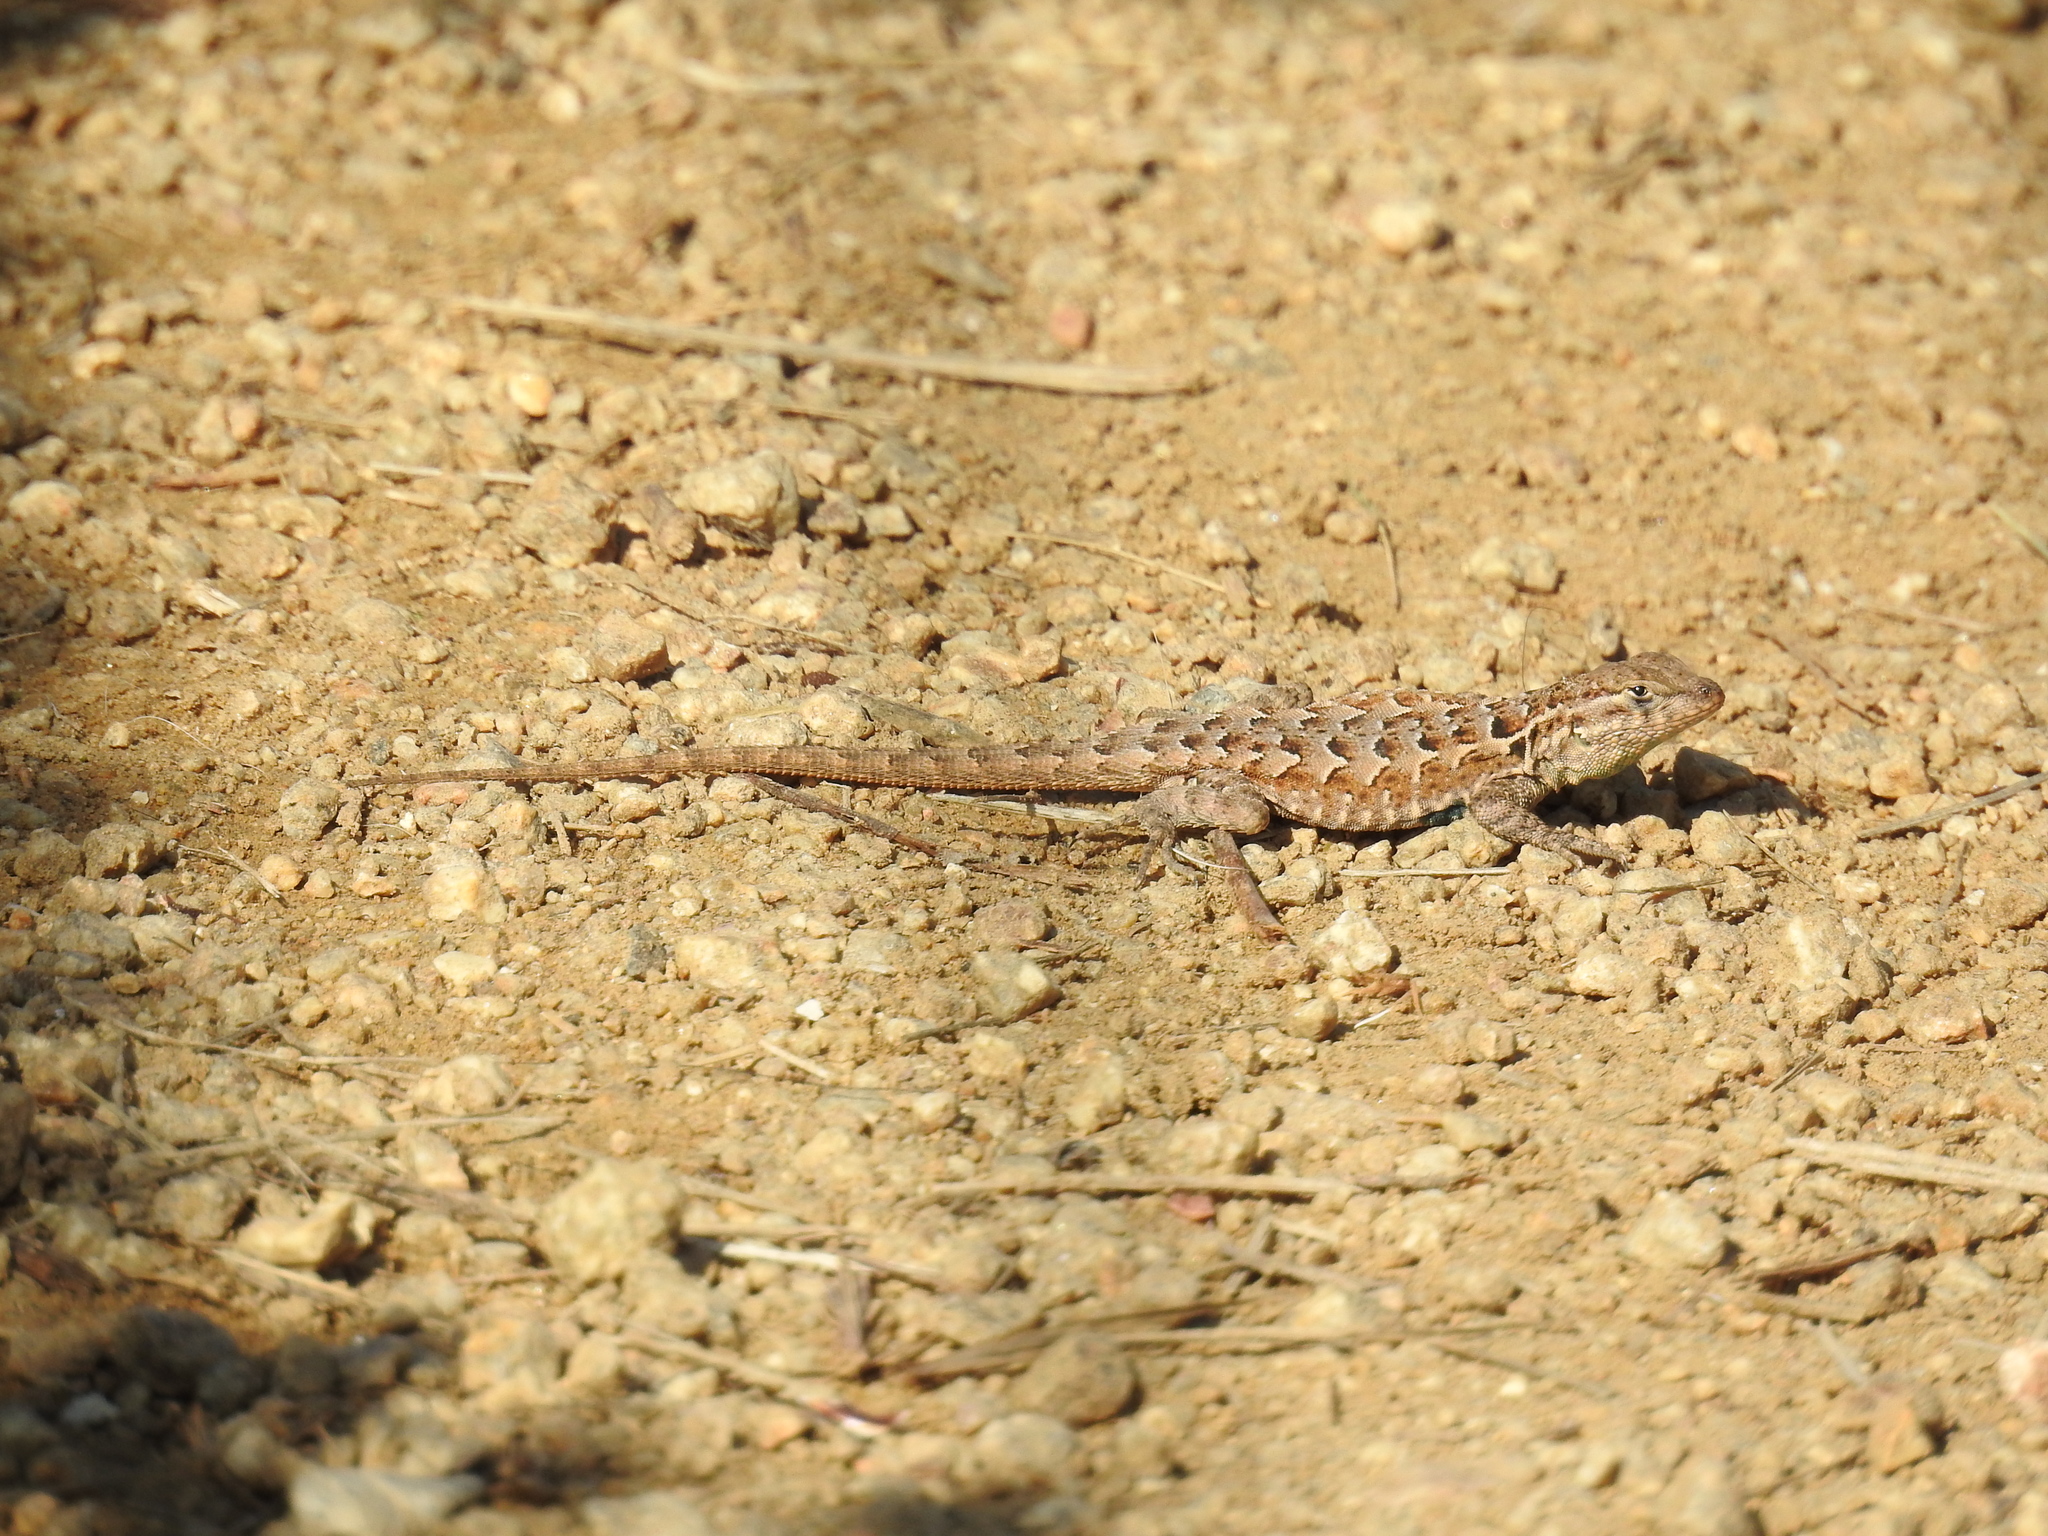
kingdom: Animalia
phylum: Chordata
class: Squamata
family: Phrynosomatidae
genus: Uta
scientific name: Uta stansburiana
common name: Side-blotched lizard
